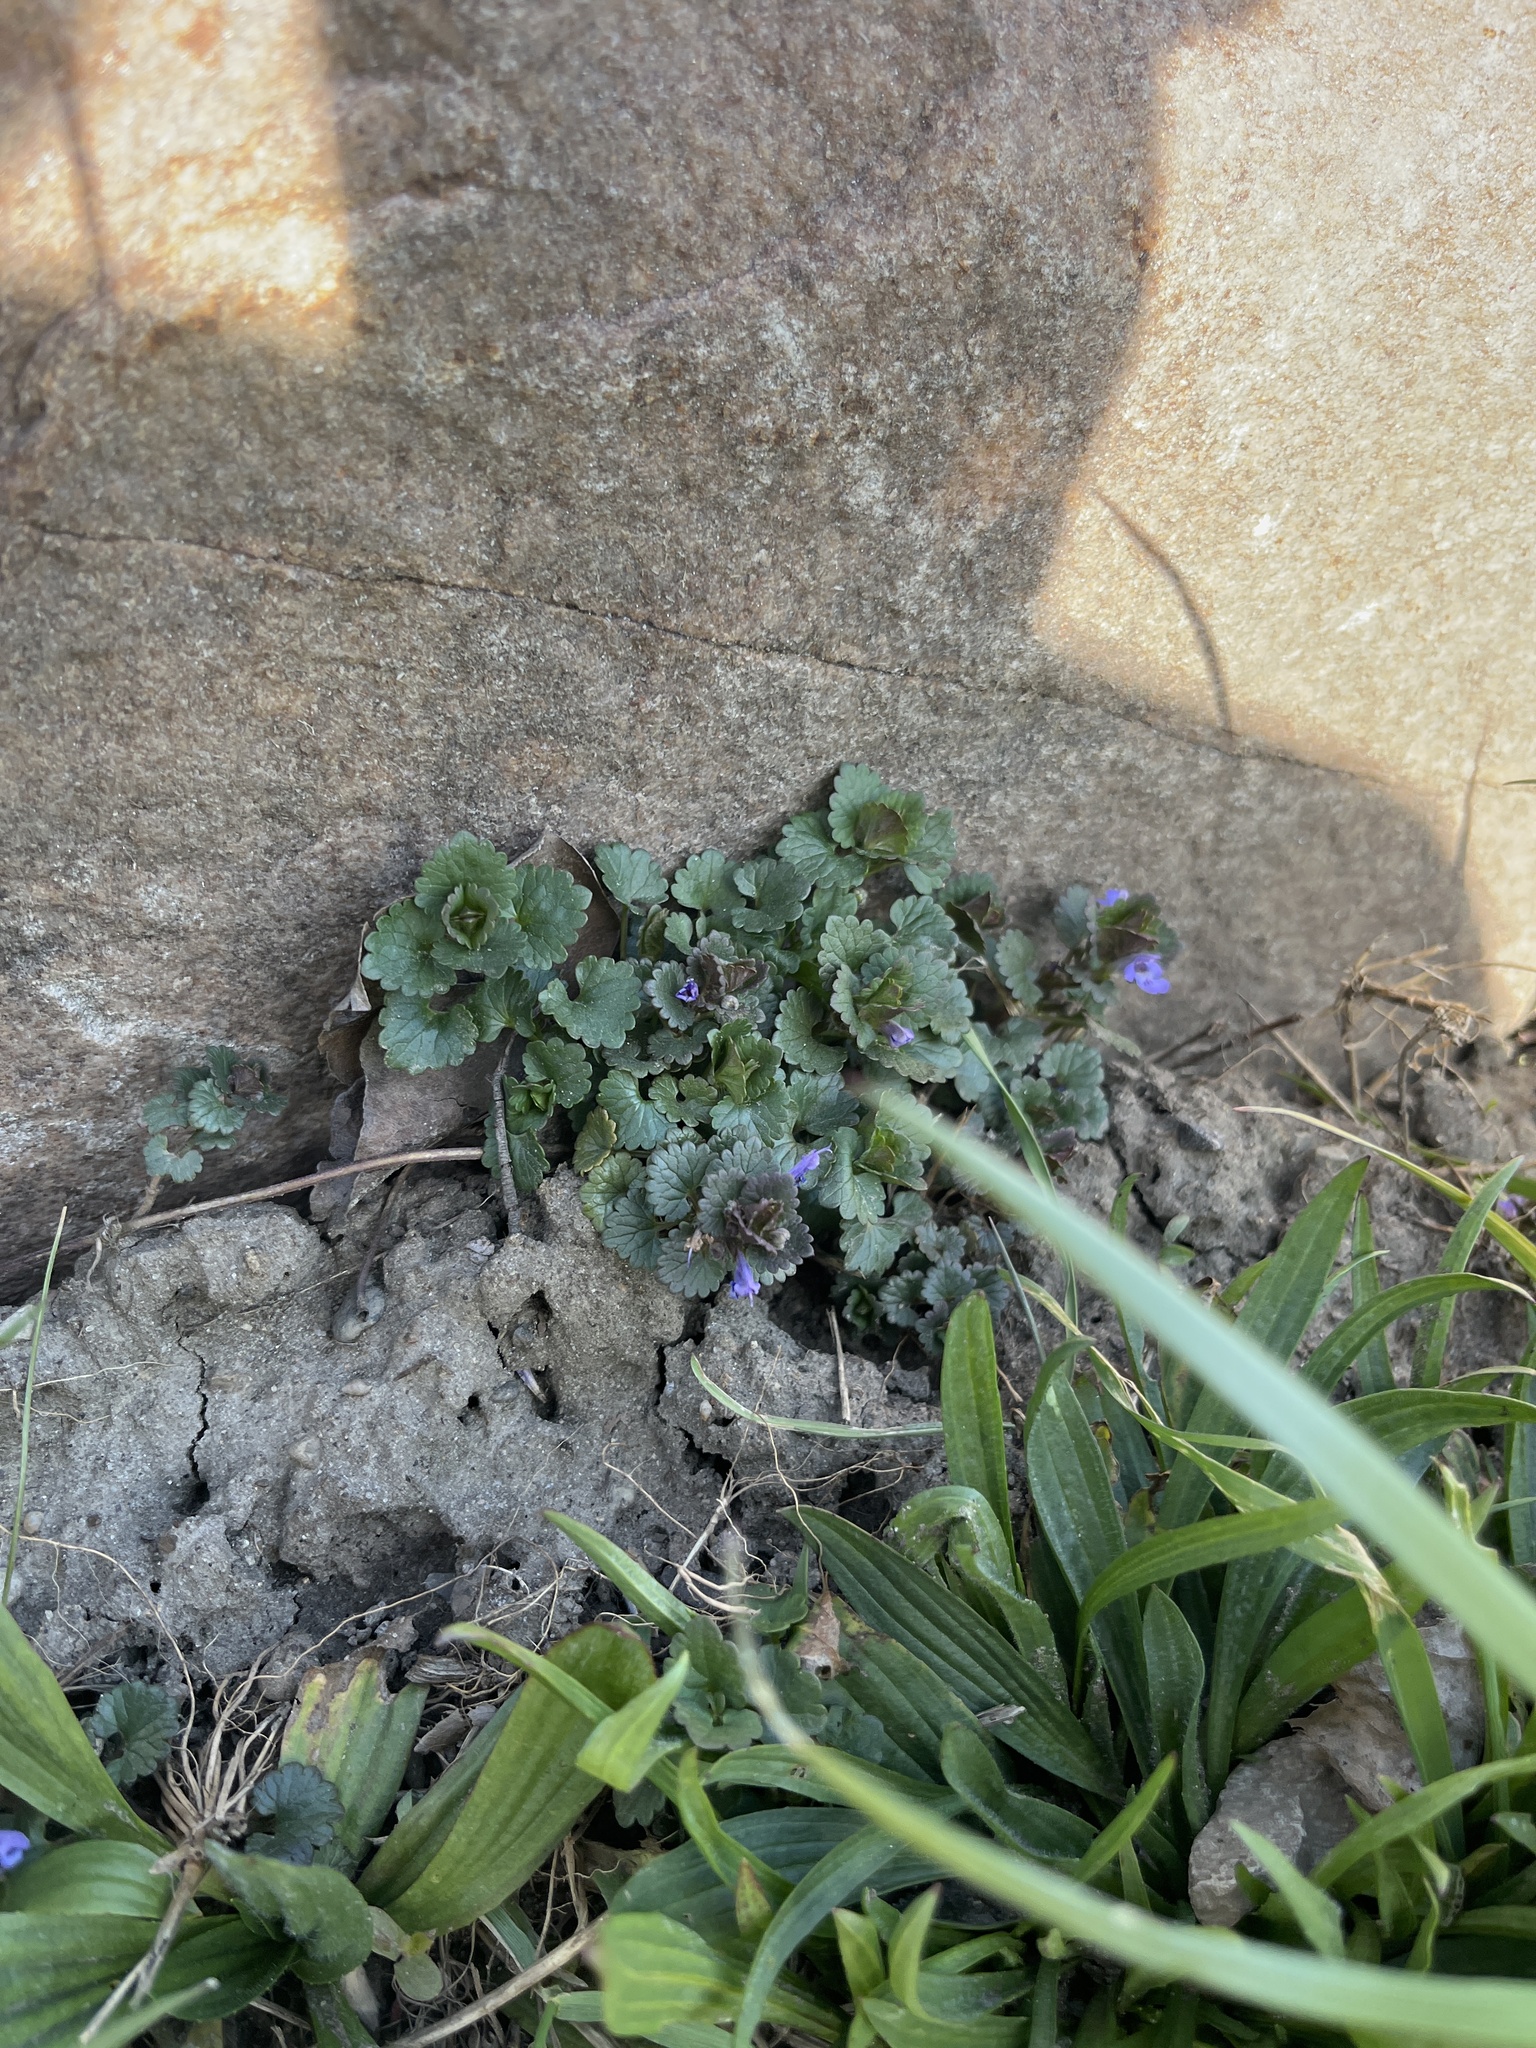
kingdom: Plantae
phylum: Tracheophyta
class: Magnoliopsida
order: Lamiales
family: Lamiaceae
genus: Glechoma
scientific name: Glechoma hederacea
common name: Ground ivy
